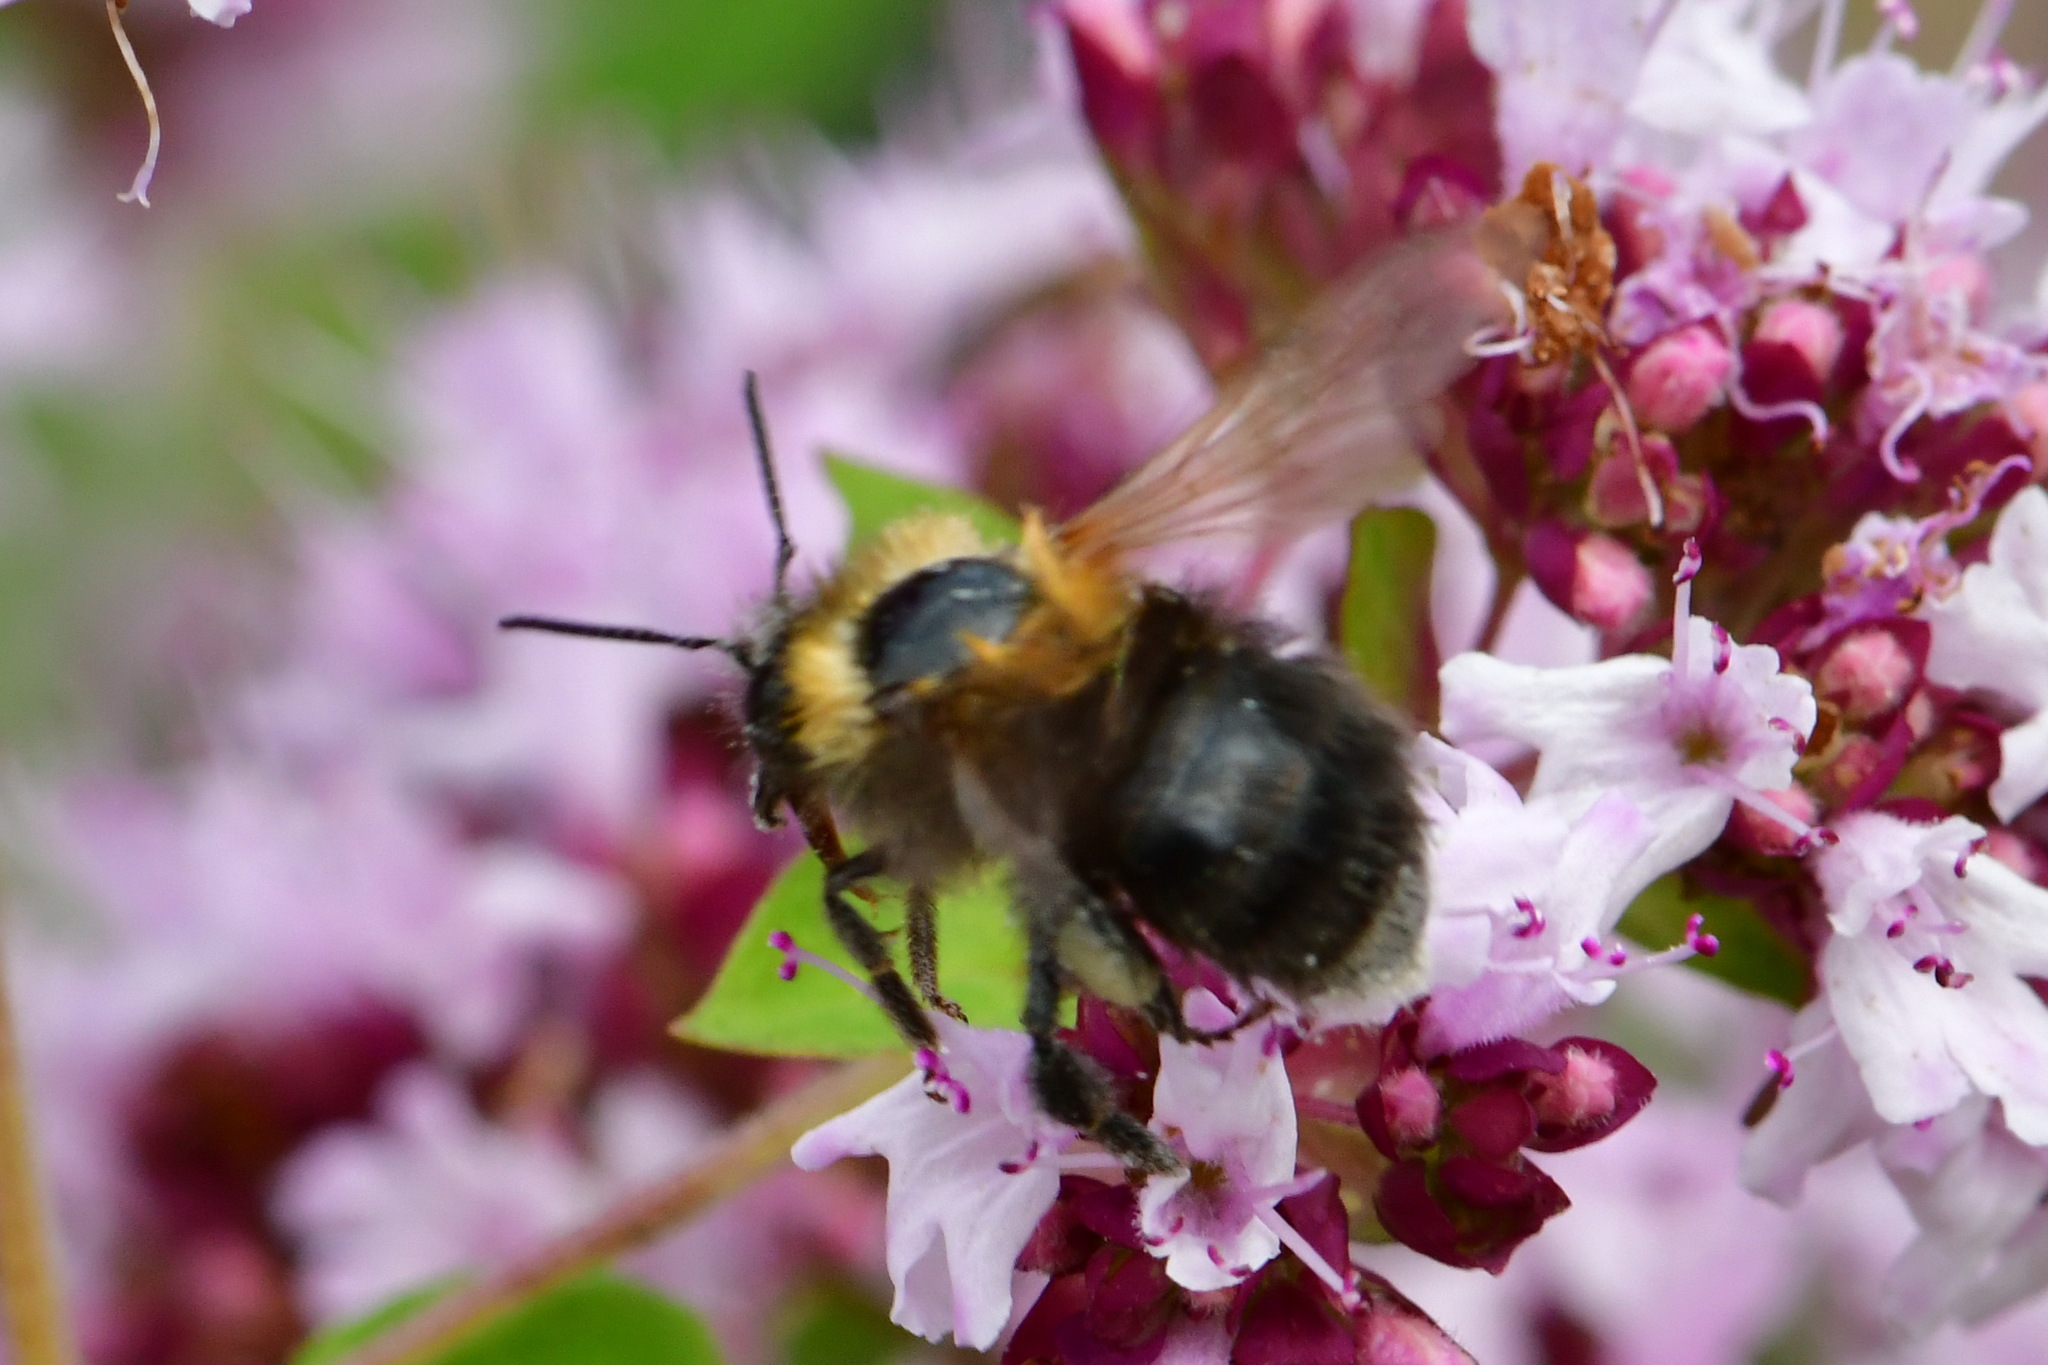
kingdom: Animalia
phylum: Arthropoda
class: Insecta
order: Hymenoptera
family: Apidae
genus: Bombus
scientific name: Bombus hypnorum
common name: New garden bumblebee
